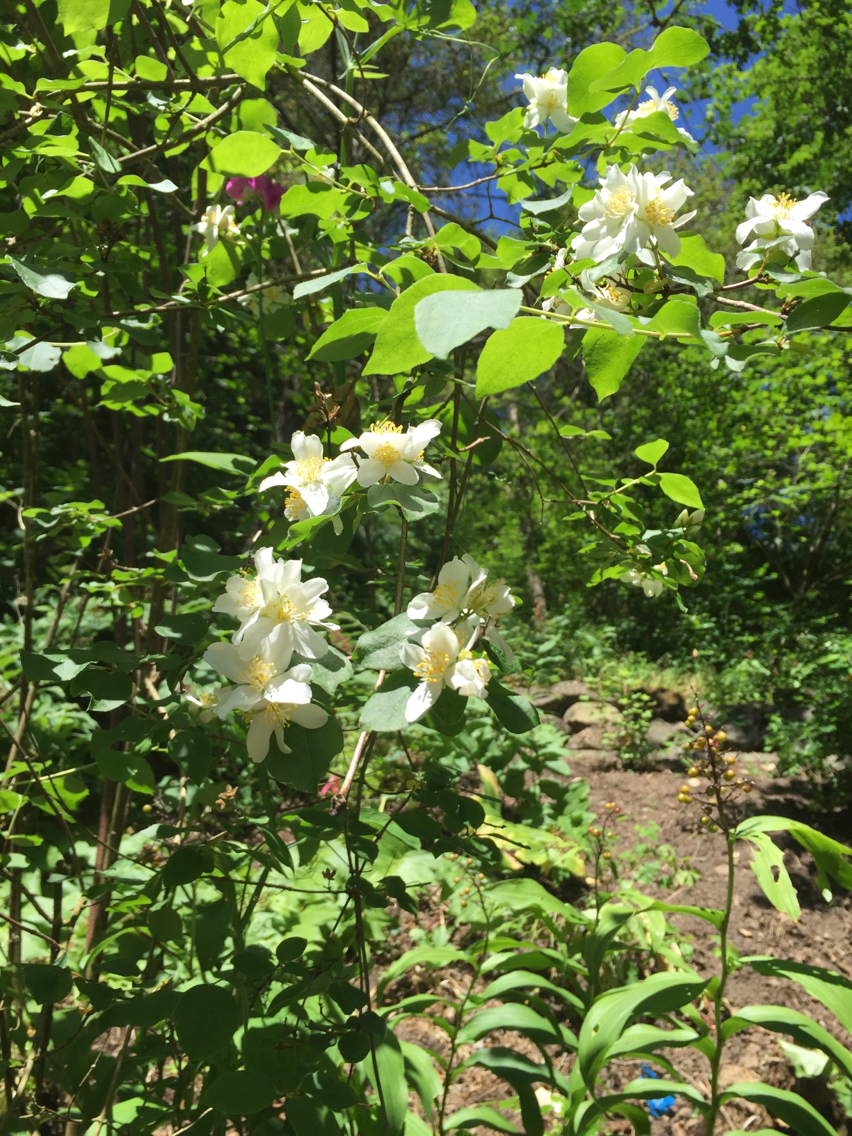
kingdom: Plantae
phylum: Tracheophyta
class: Magnoliopsida
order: Cornales
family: Hydrangeaceae
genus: Philadelphus
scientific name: Philadelphus lewisii
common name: Lewis's mock orange
